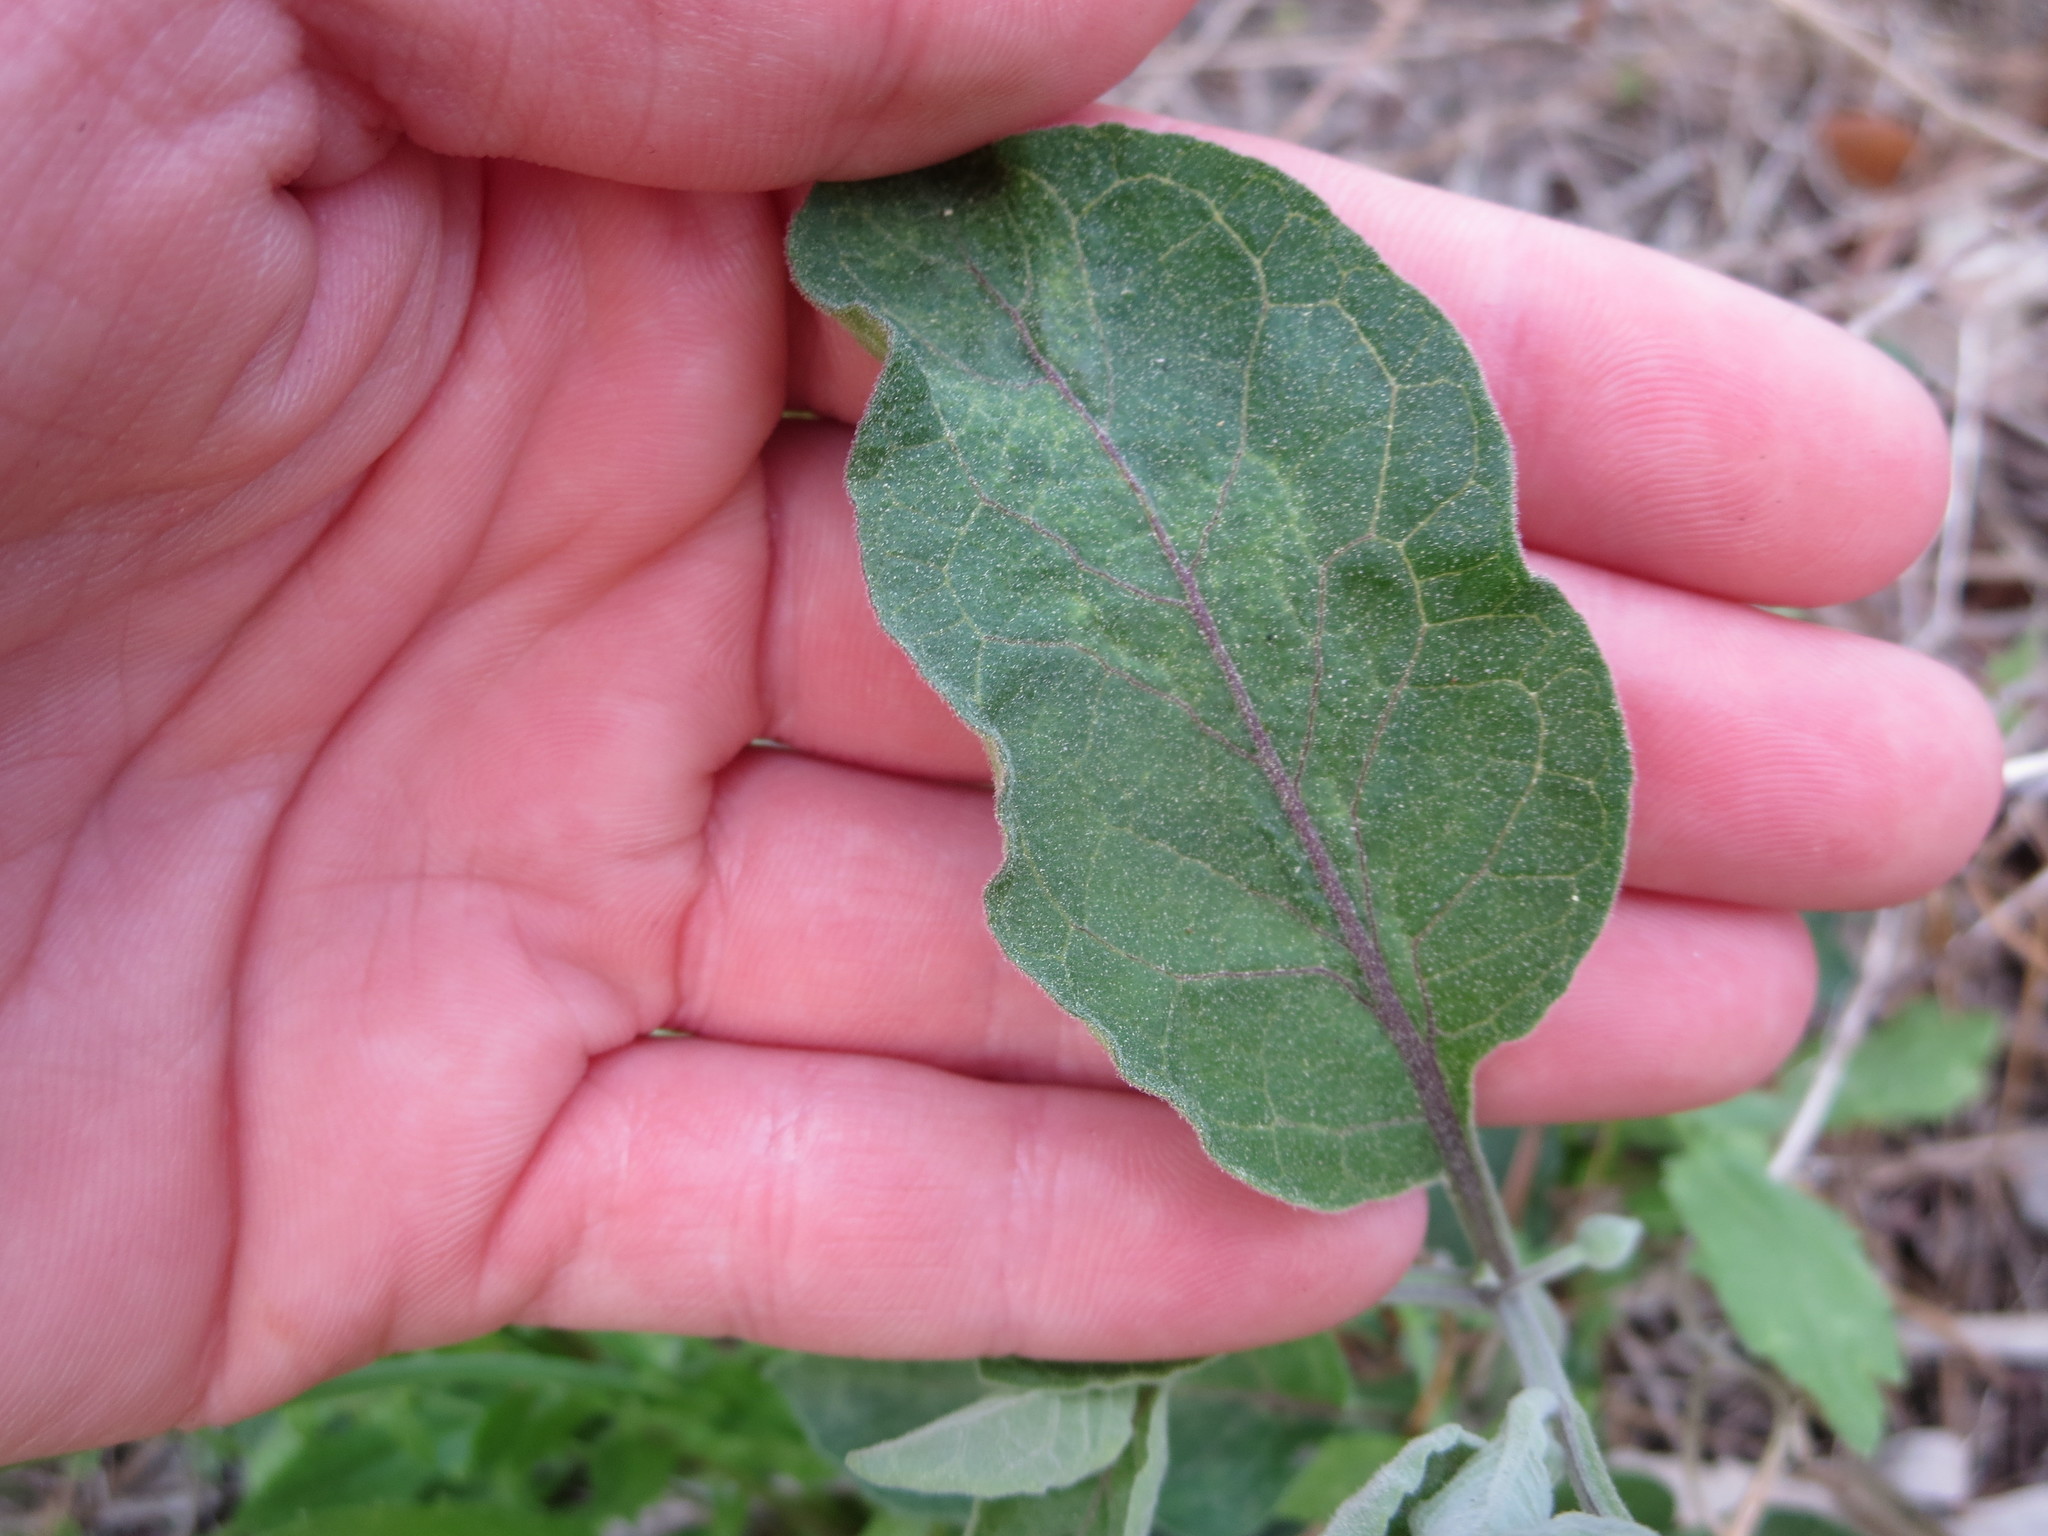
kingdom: Plantae
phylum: Tracheophyta
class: Magnoliopsida
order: Solanales
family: Solanaceae
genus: Physalis
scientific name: Physalis walteri
